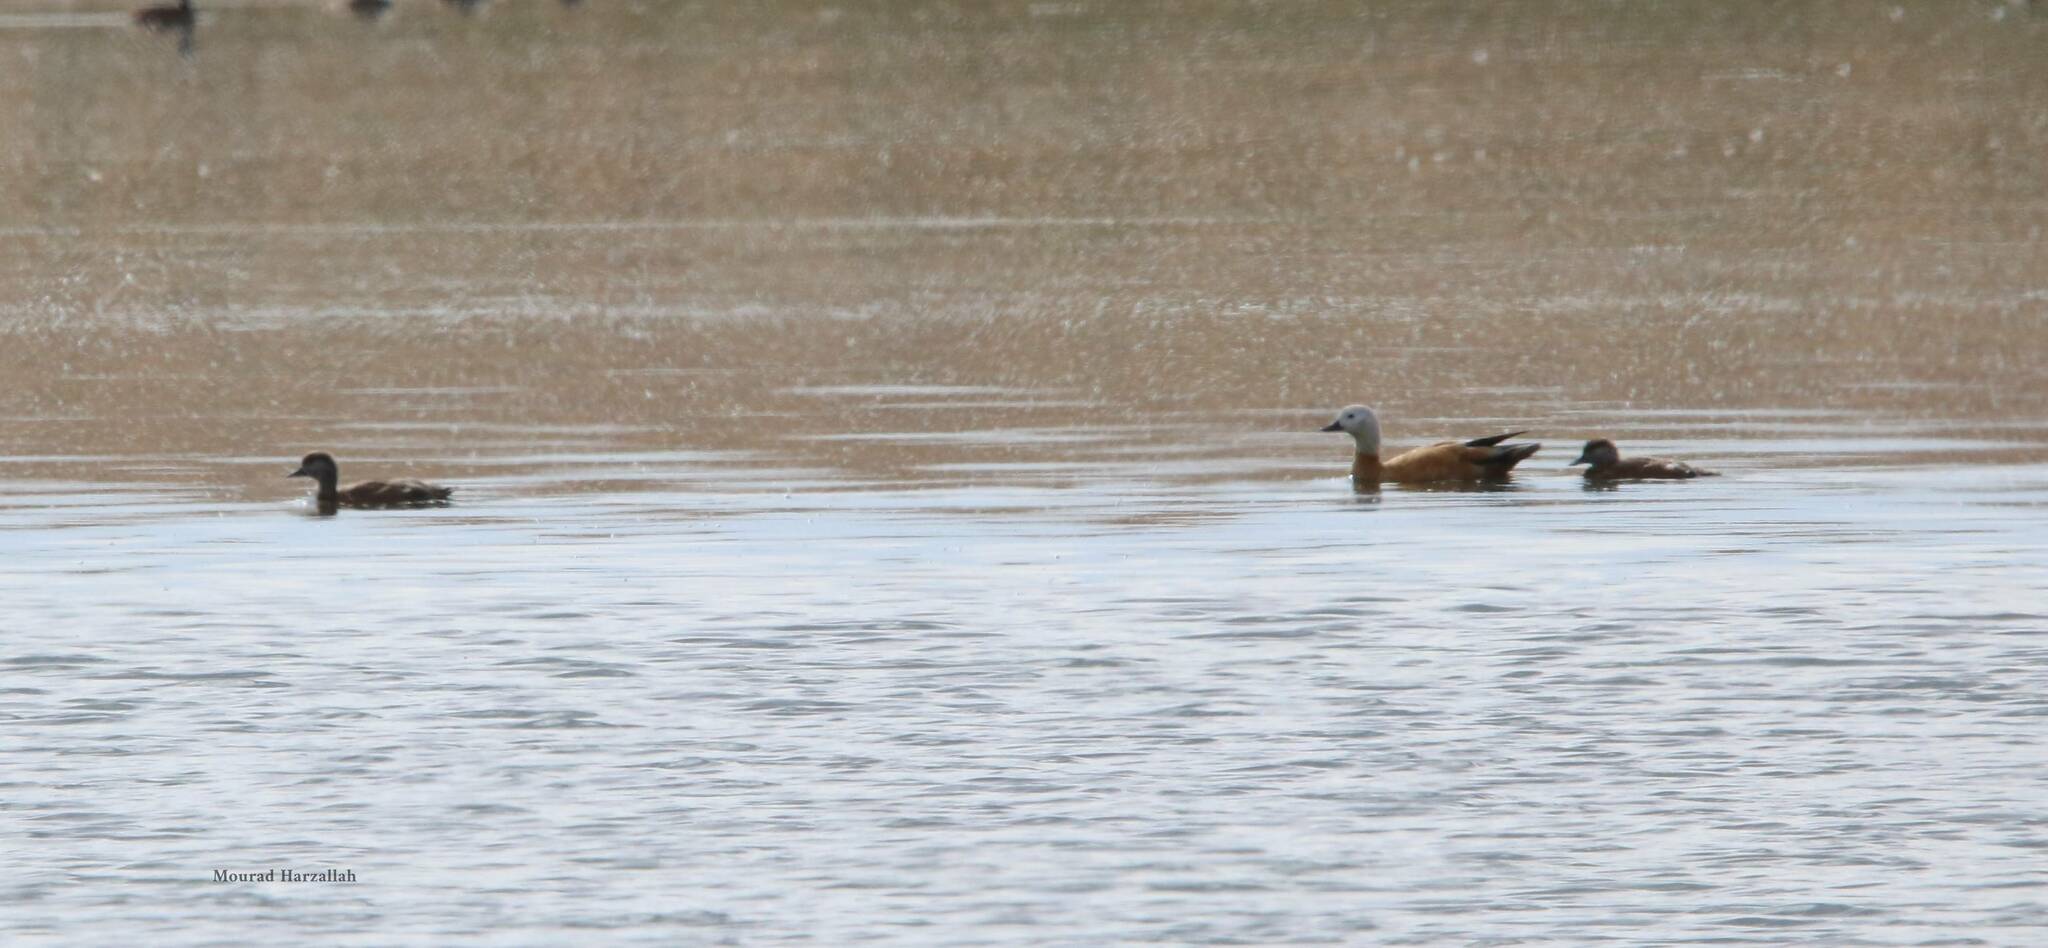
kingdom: Animalia
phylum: Chordata
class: Aves
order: Anseriformes
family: Anatidae
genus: Tadorna
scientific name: Tadorna ferruginea
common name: Ruddy shelduck
